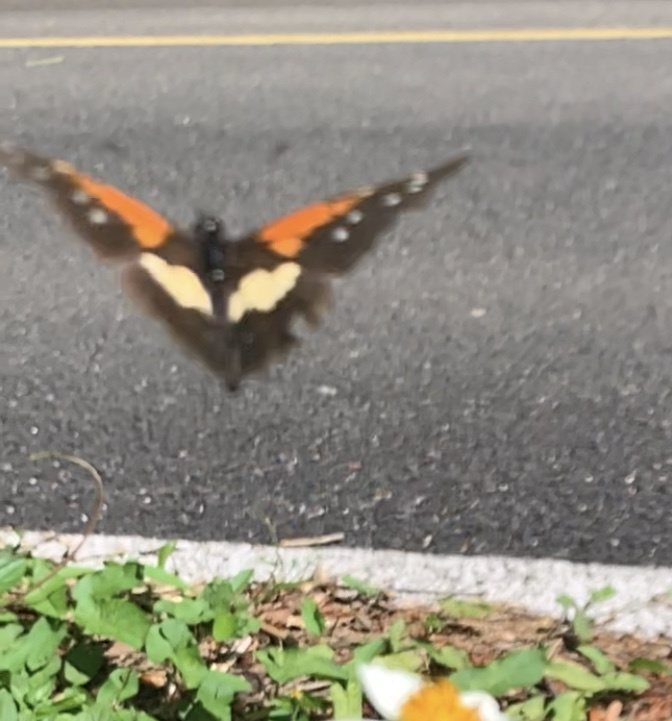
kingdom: Animalia
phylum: Arthropoda
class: Insecta
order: Lepidoptera
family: Nymphalidae
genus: Chlosyne
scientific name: Chlosyne gaudialis
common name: Gaudy checkerspot
